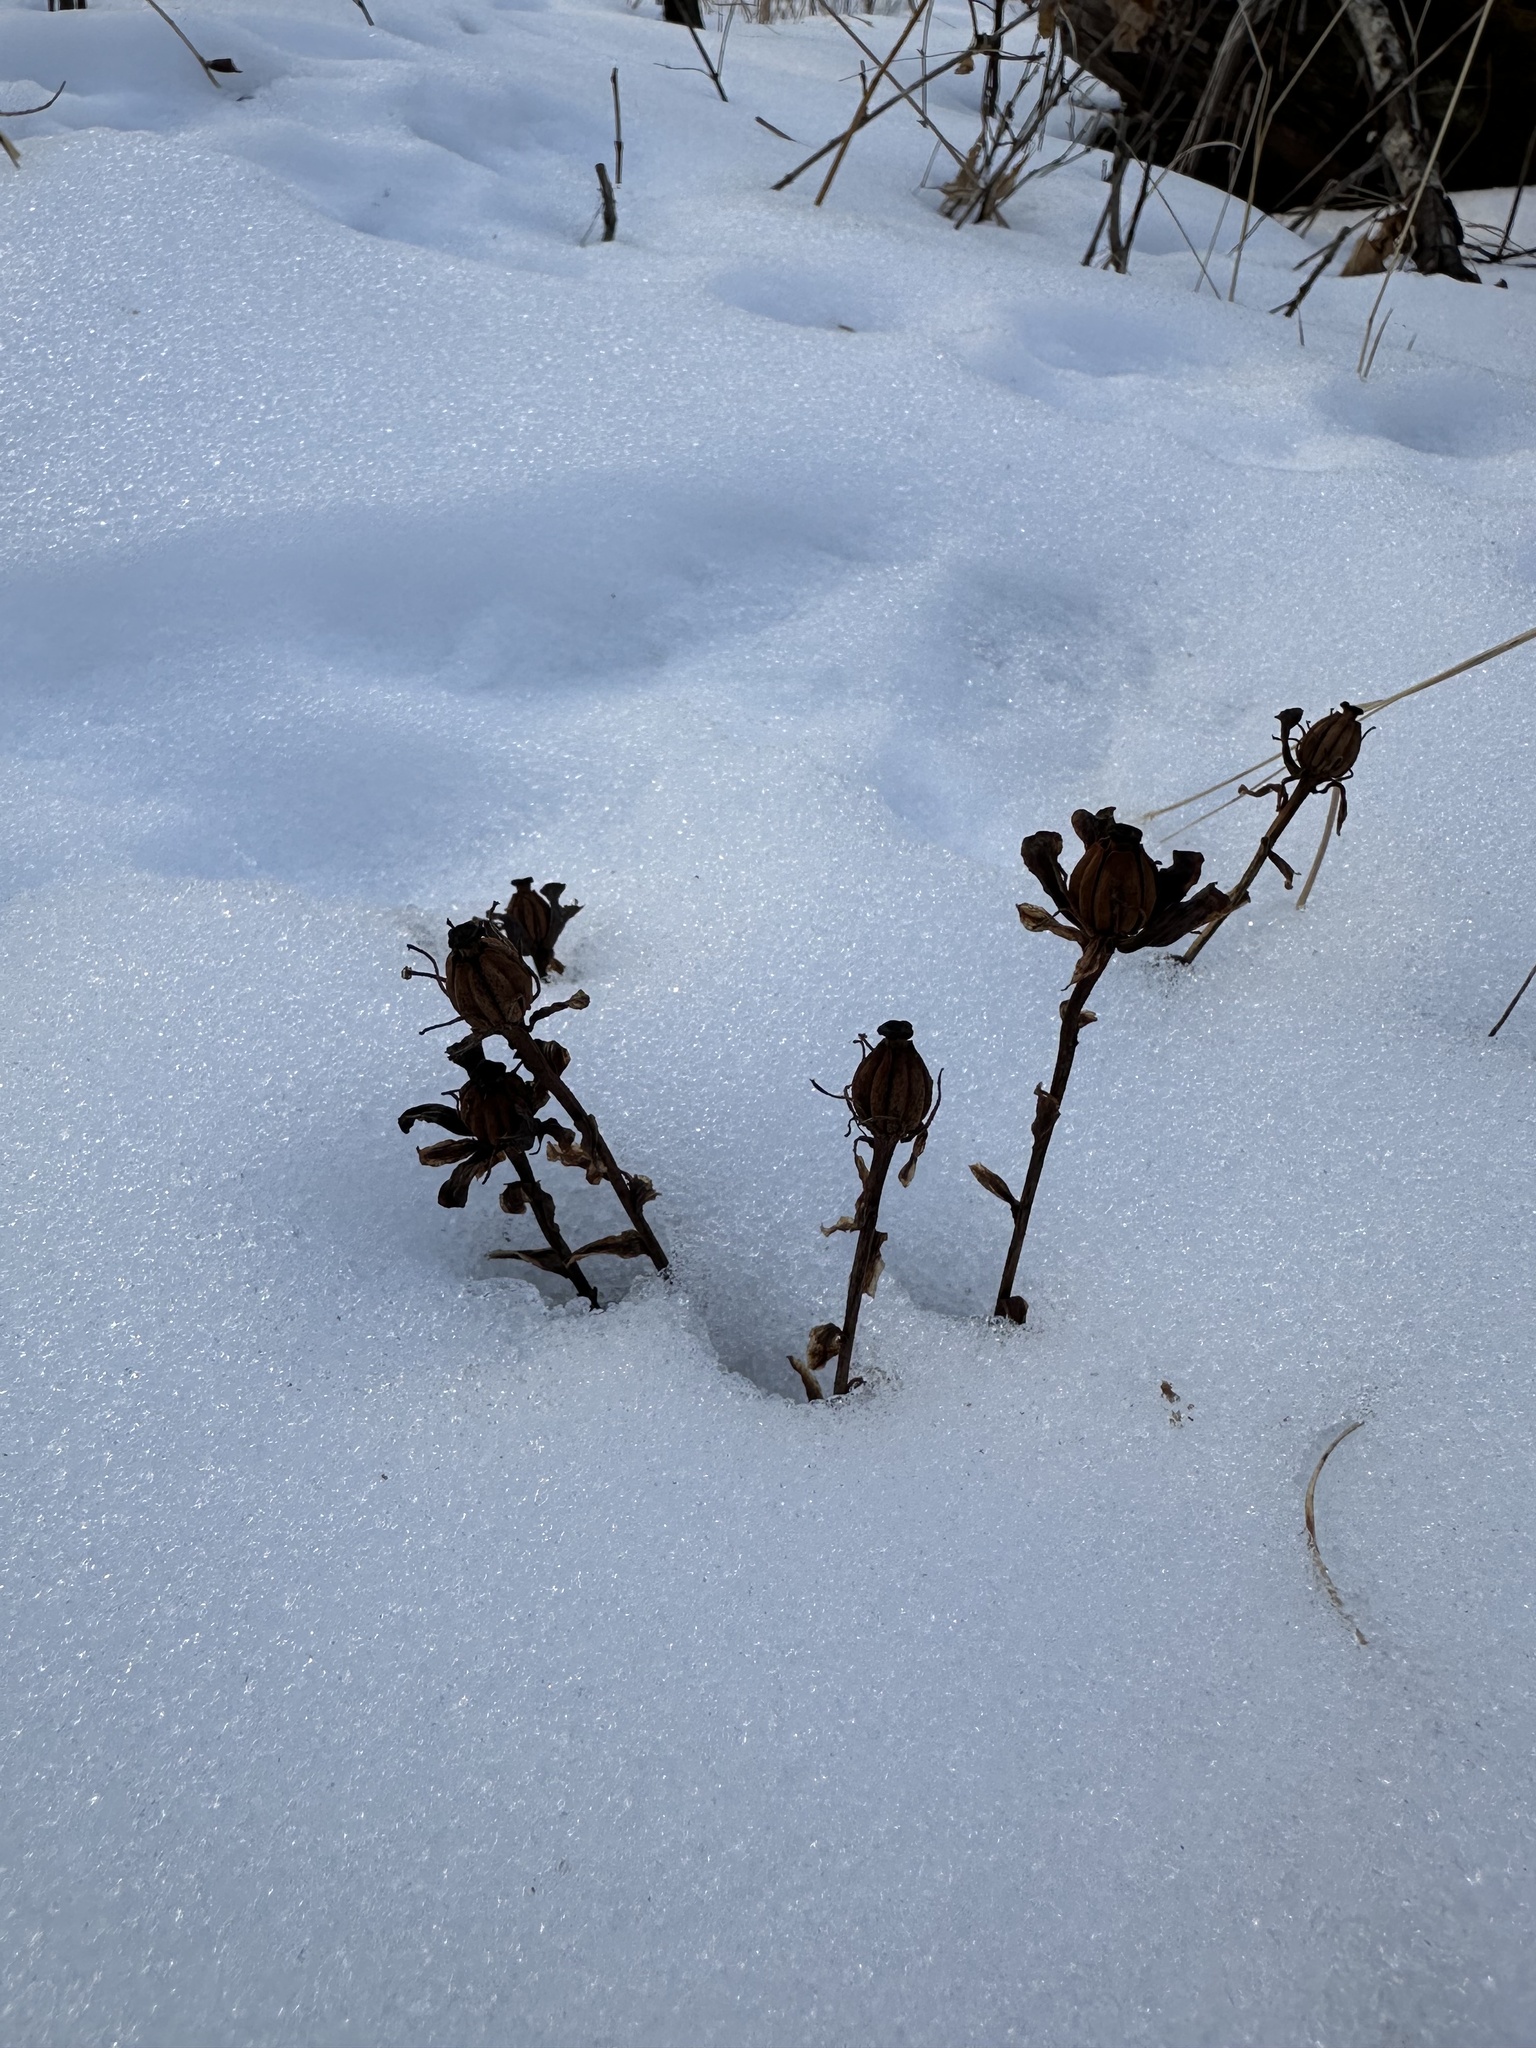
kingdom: Plantae
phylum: Tracheophyta
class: Magnoliopsida
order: Ericales
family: Ericaceae
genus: Monotropa
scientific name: Monotropa uniflora
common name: Convulsion root
